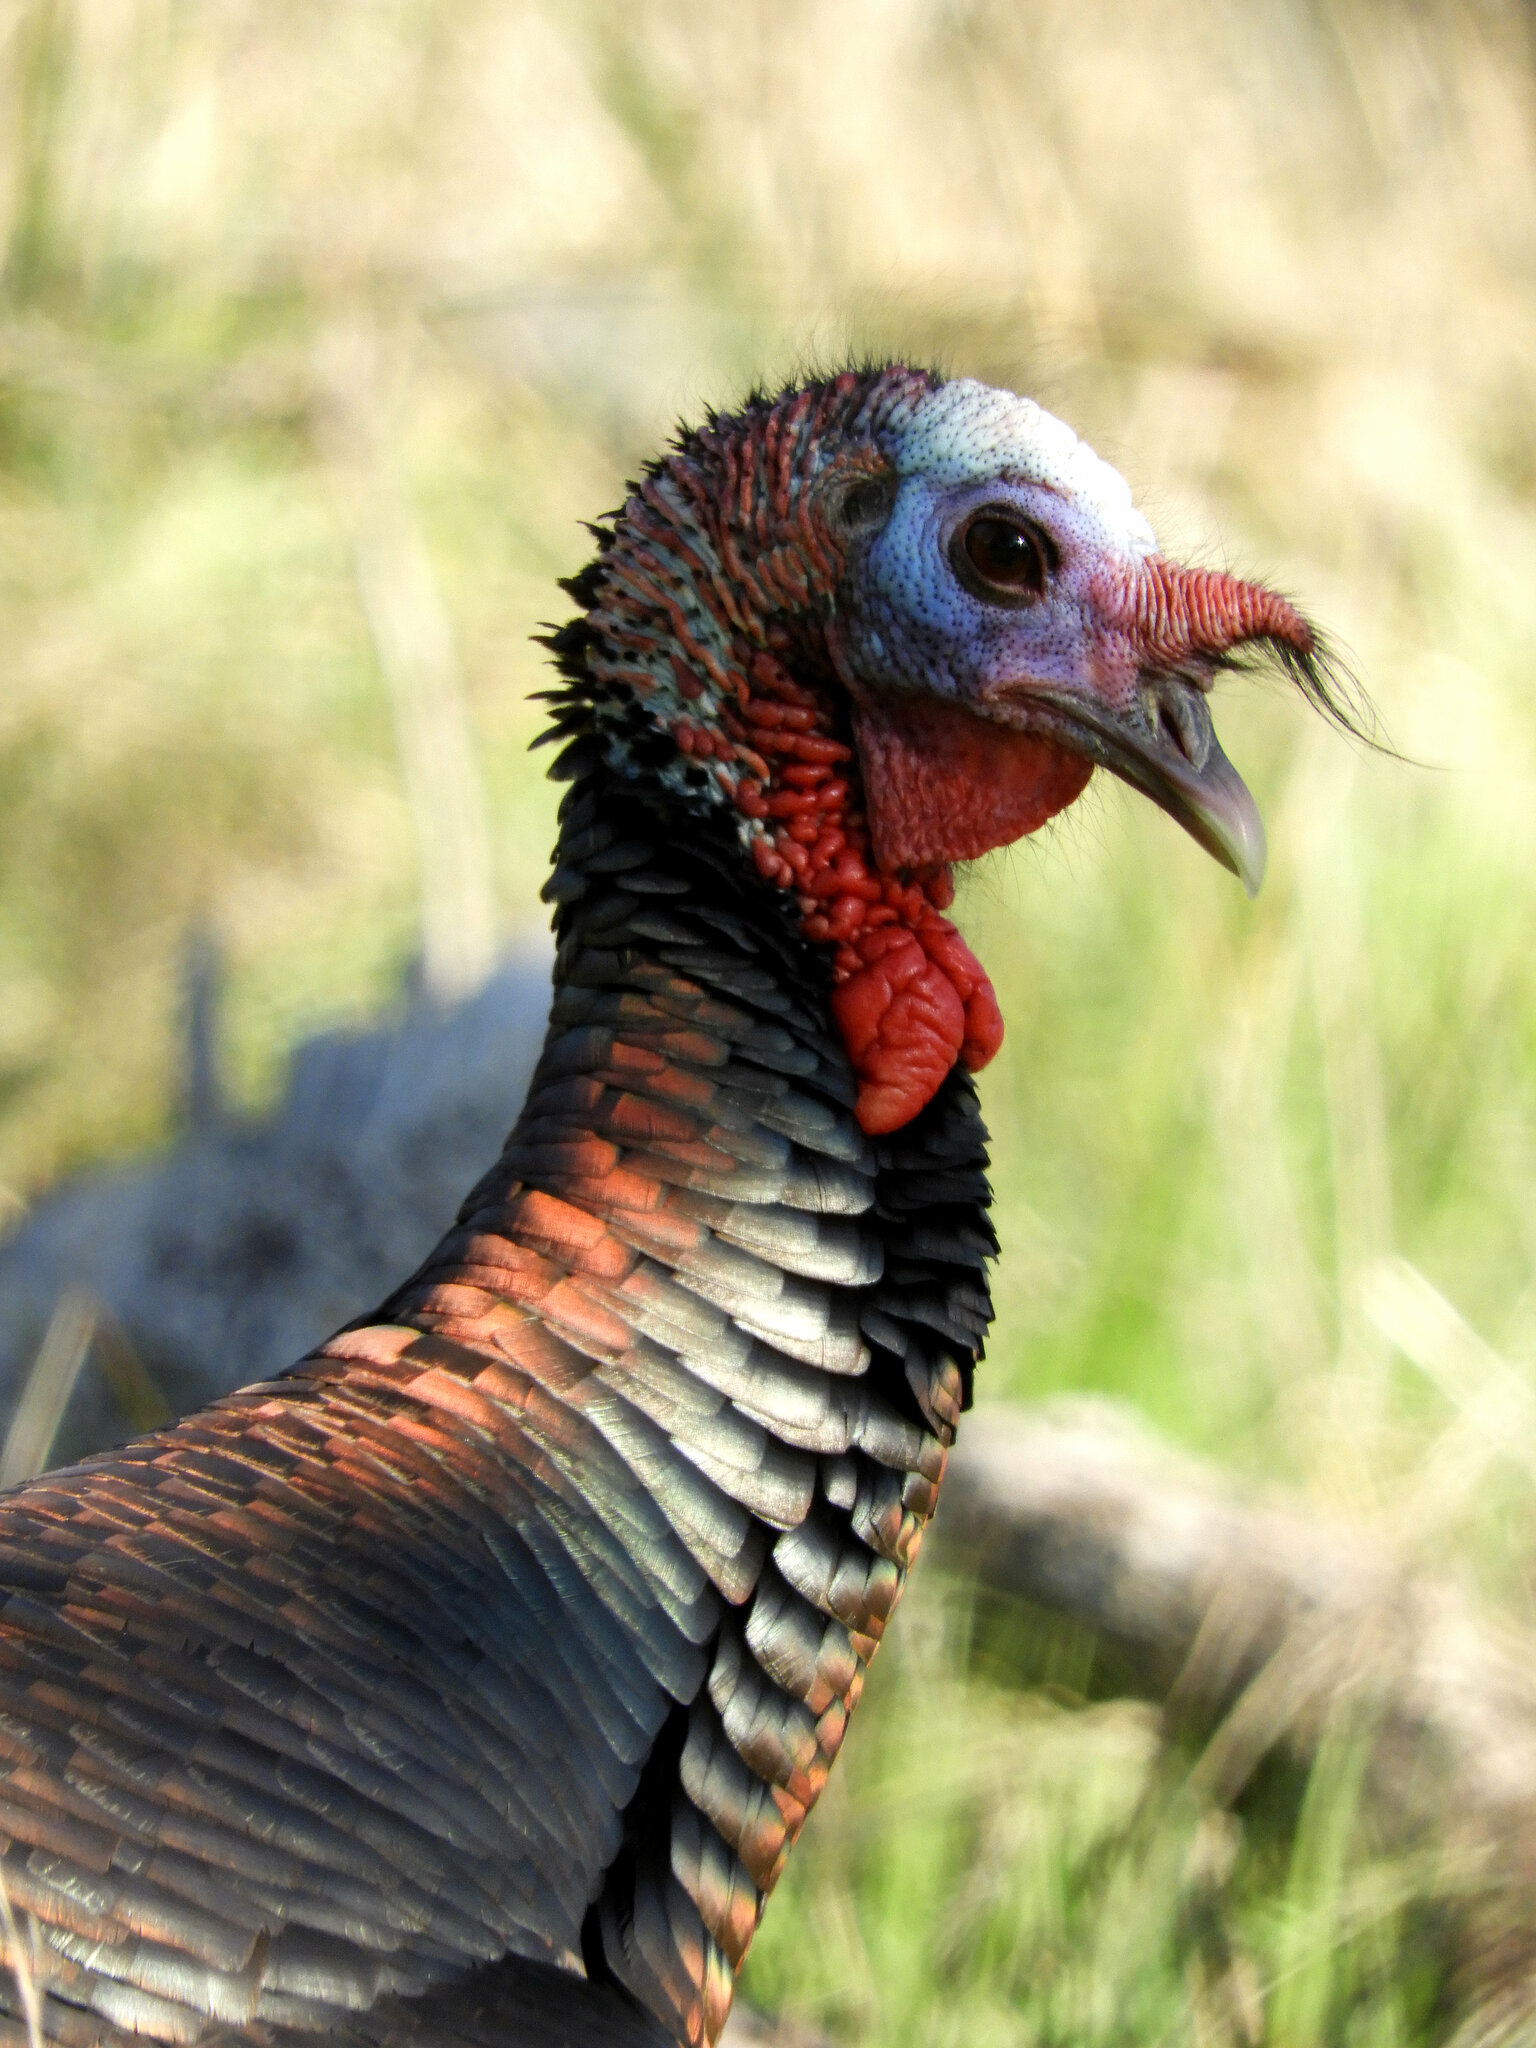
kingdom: Animalia
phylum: Chordata
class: Aves
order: Galliformes
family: Phasianidae
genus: Meleagris
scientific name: Meleagris gallopavo
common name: Wild turkey
